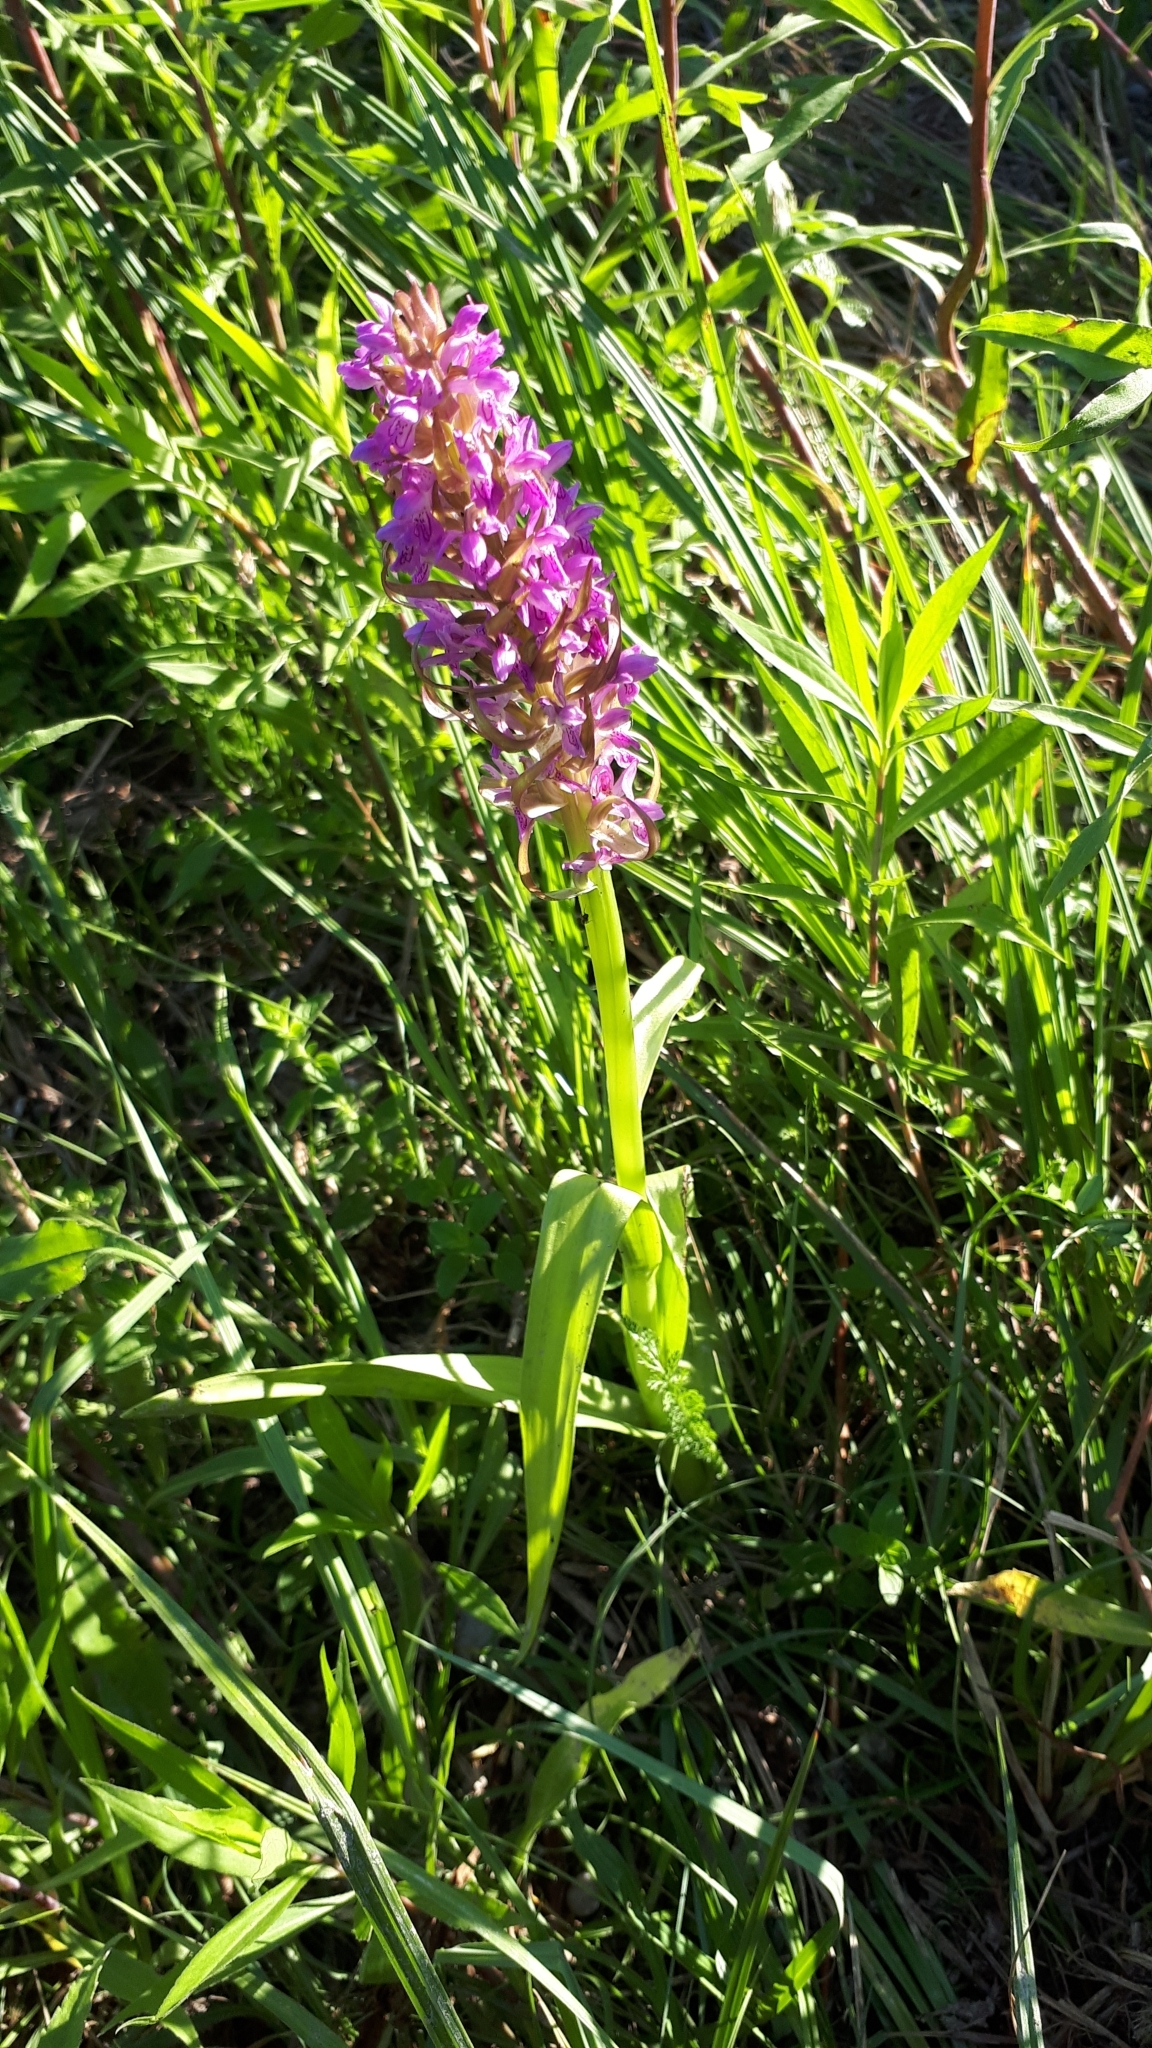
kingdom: Plantae
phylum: Tracheophyta
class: Liliopsida
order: Asparagales
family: Orchidaceae
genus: Dactylorhiza
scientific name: Dactylorhiza incarnata
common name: Early marsh-orchid
